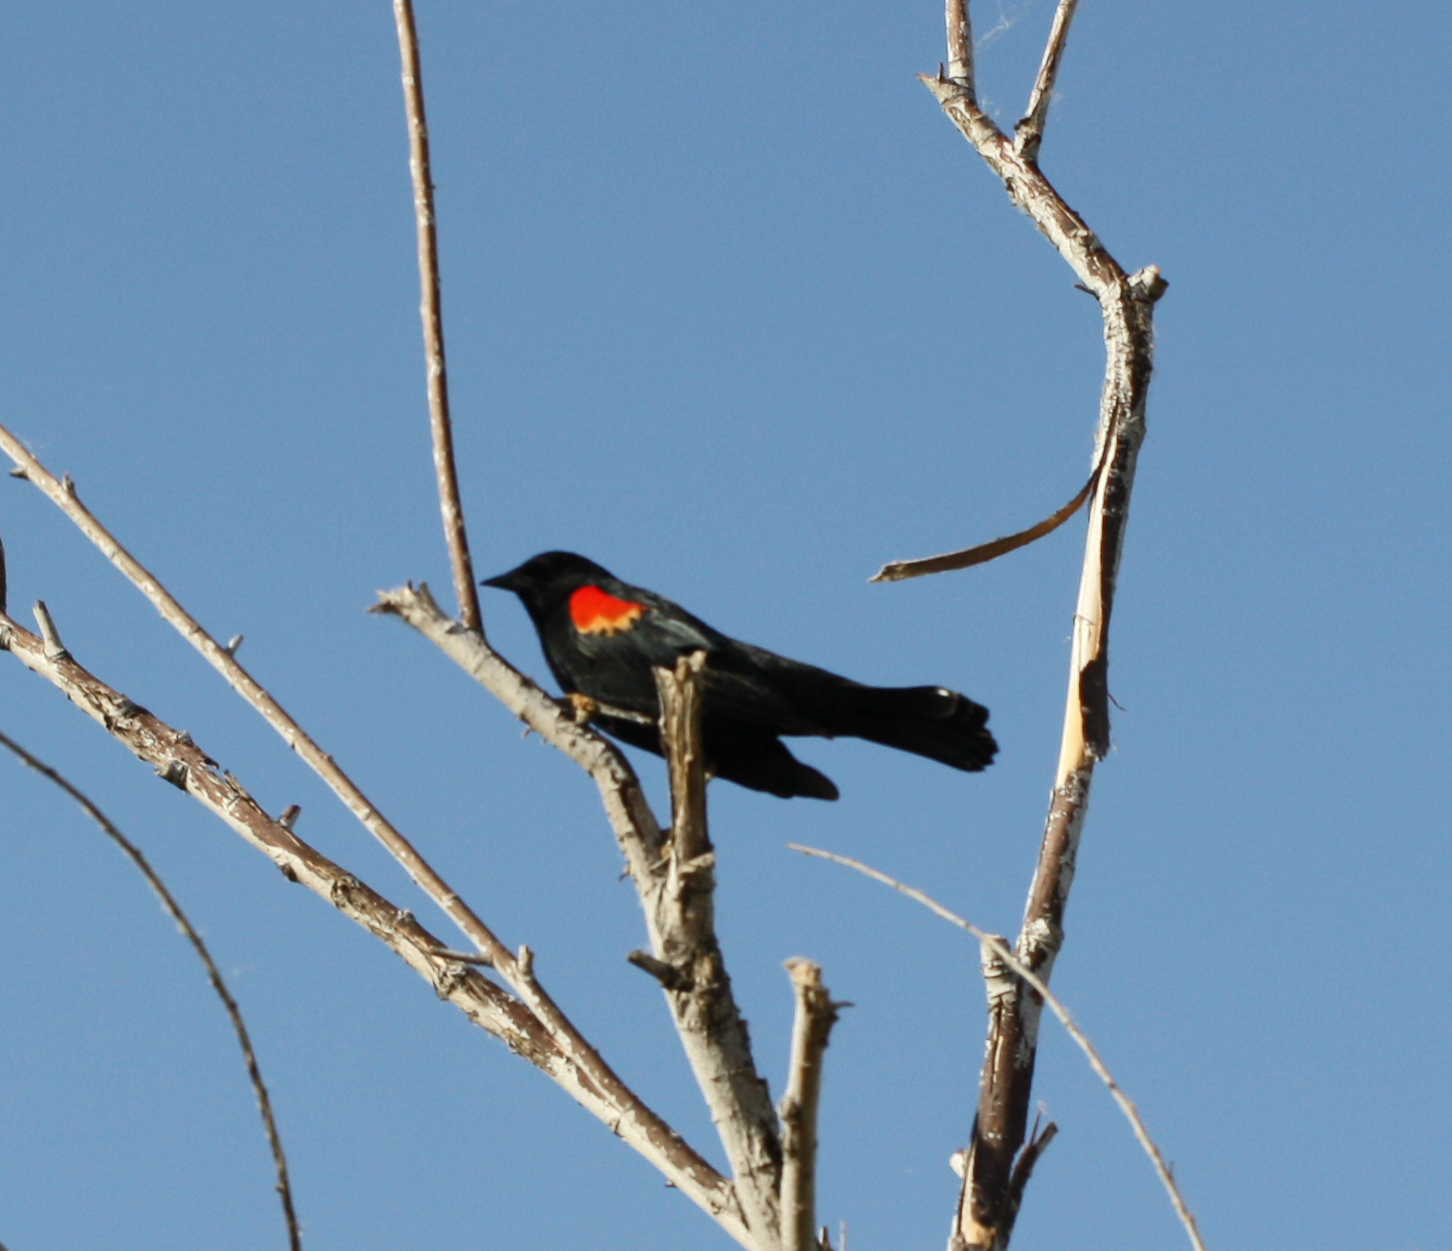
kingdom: Animalia
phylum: Chordata
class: Aves
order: Passeriformes
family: Icteridae
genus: Agelaius
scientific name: Agelaius phoeniceus
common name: Red-winged blackbird
